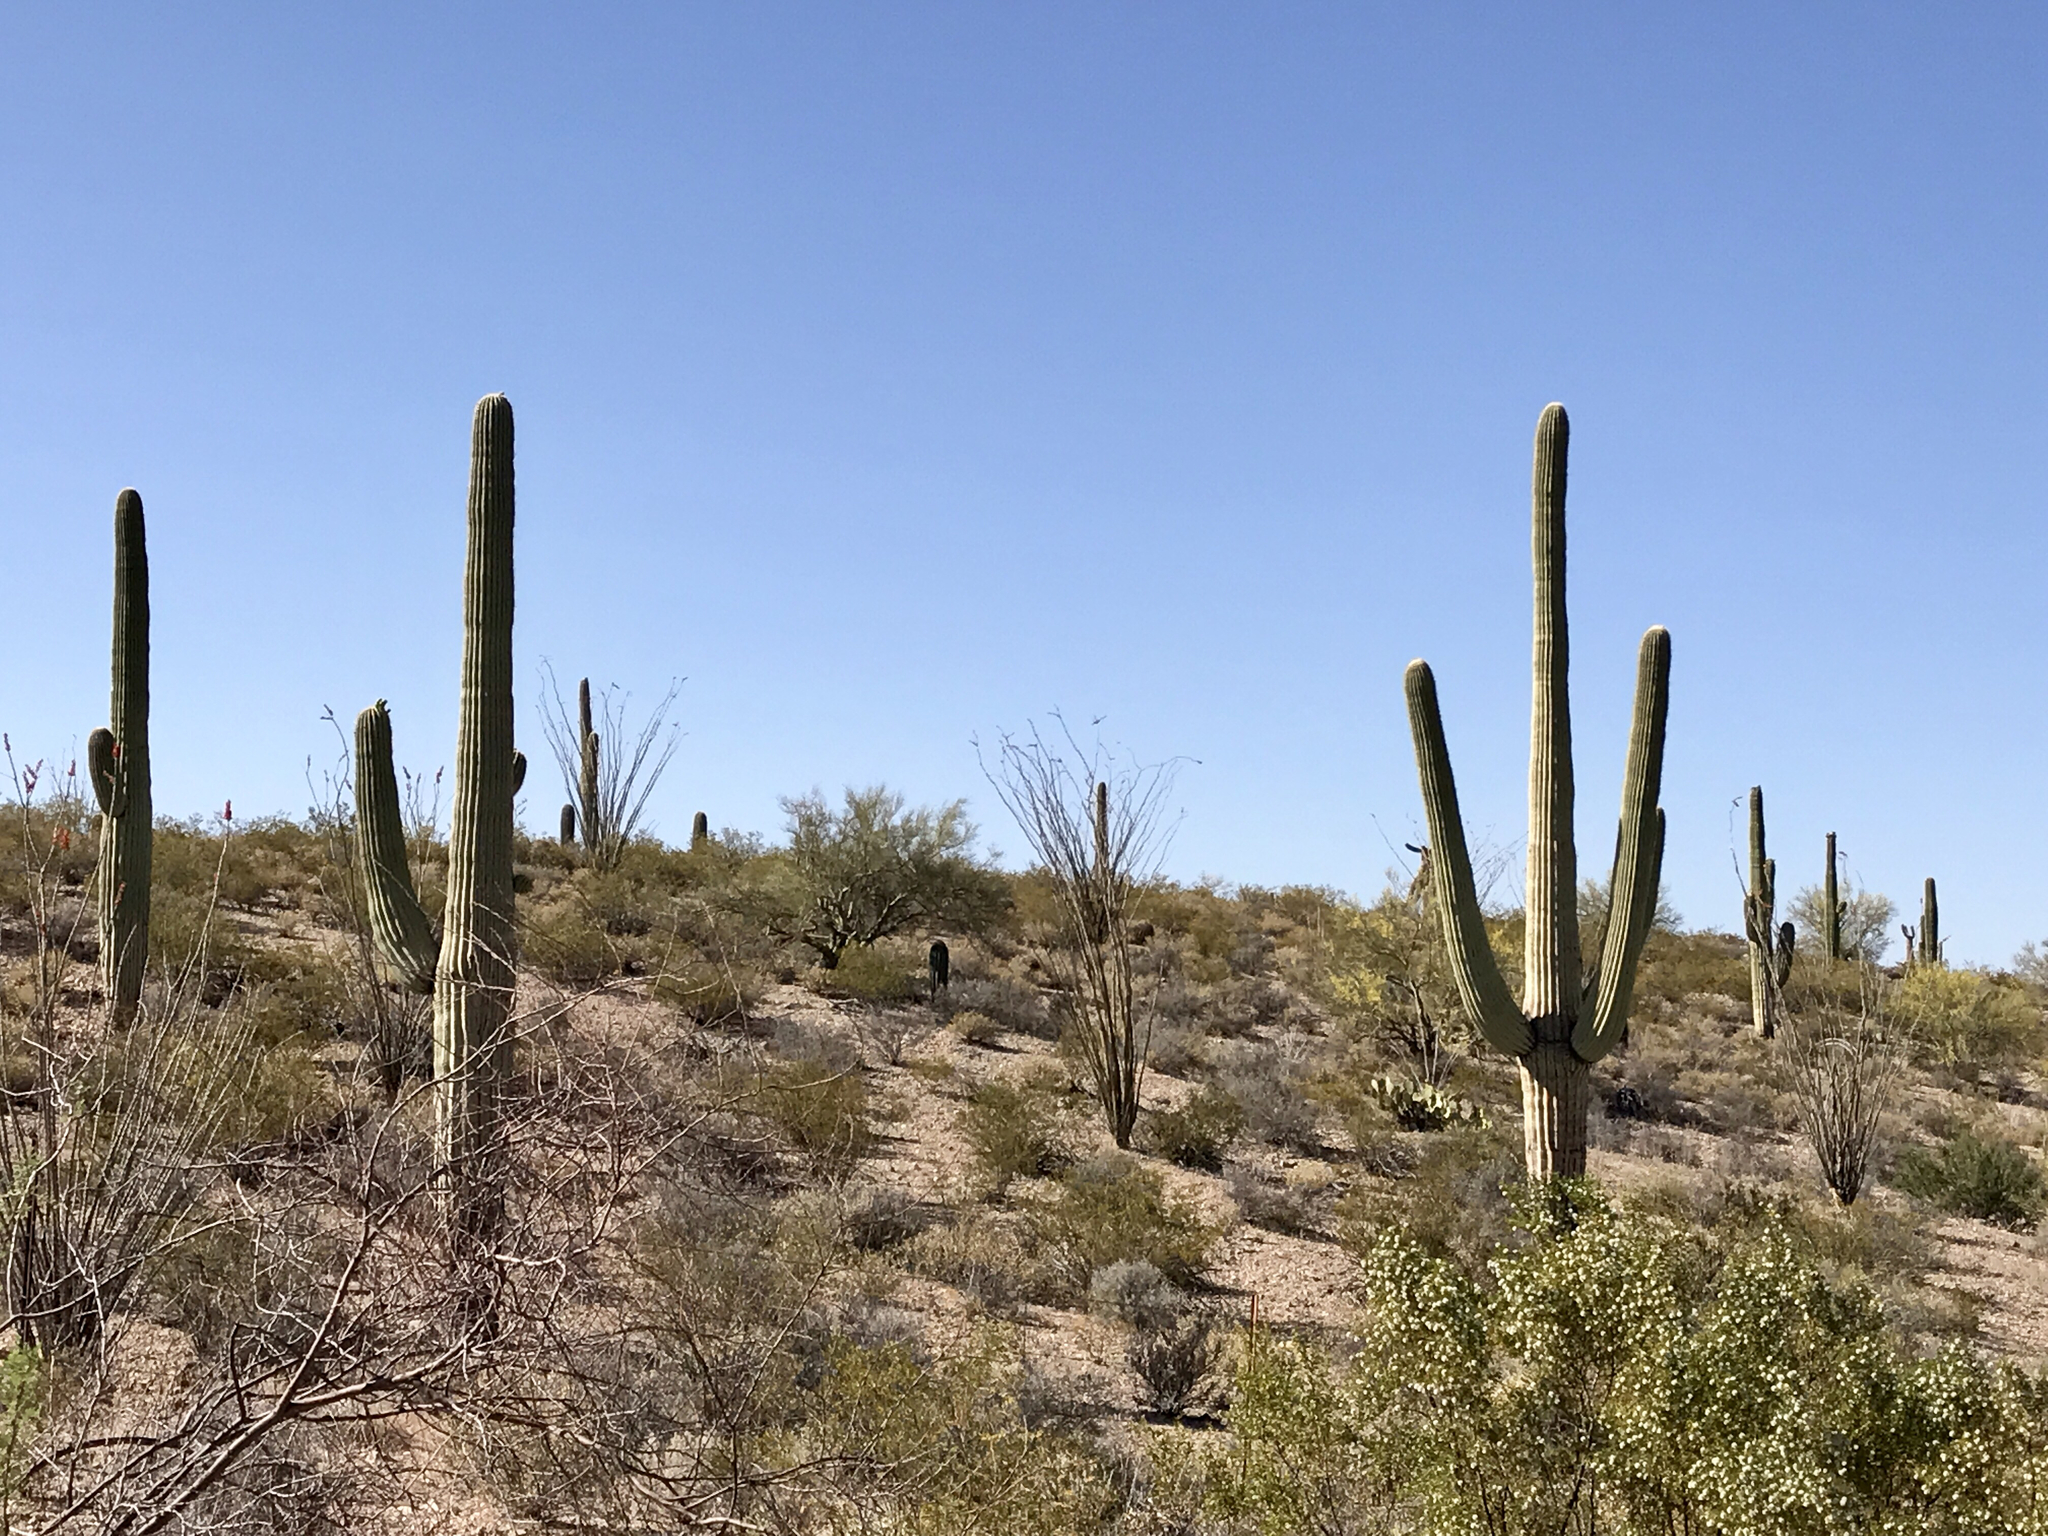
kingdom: Plantae
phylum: Tracheophyta
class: Magnoliopsida
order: Caryophyllales
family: Cactaceae
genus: Carnegiea
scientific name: Carnegiea gigantea
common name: Saguaro
